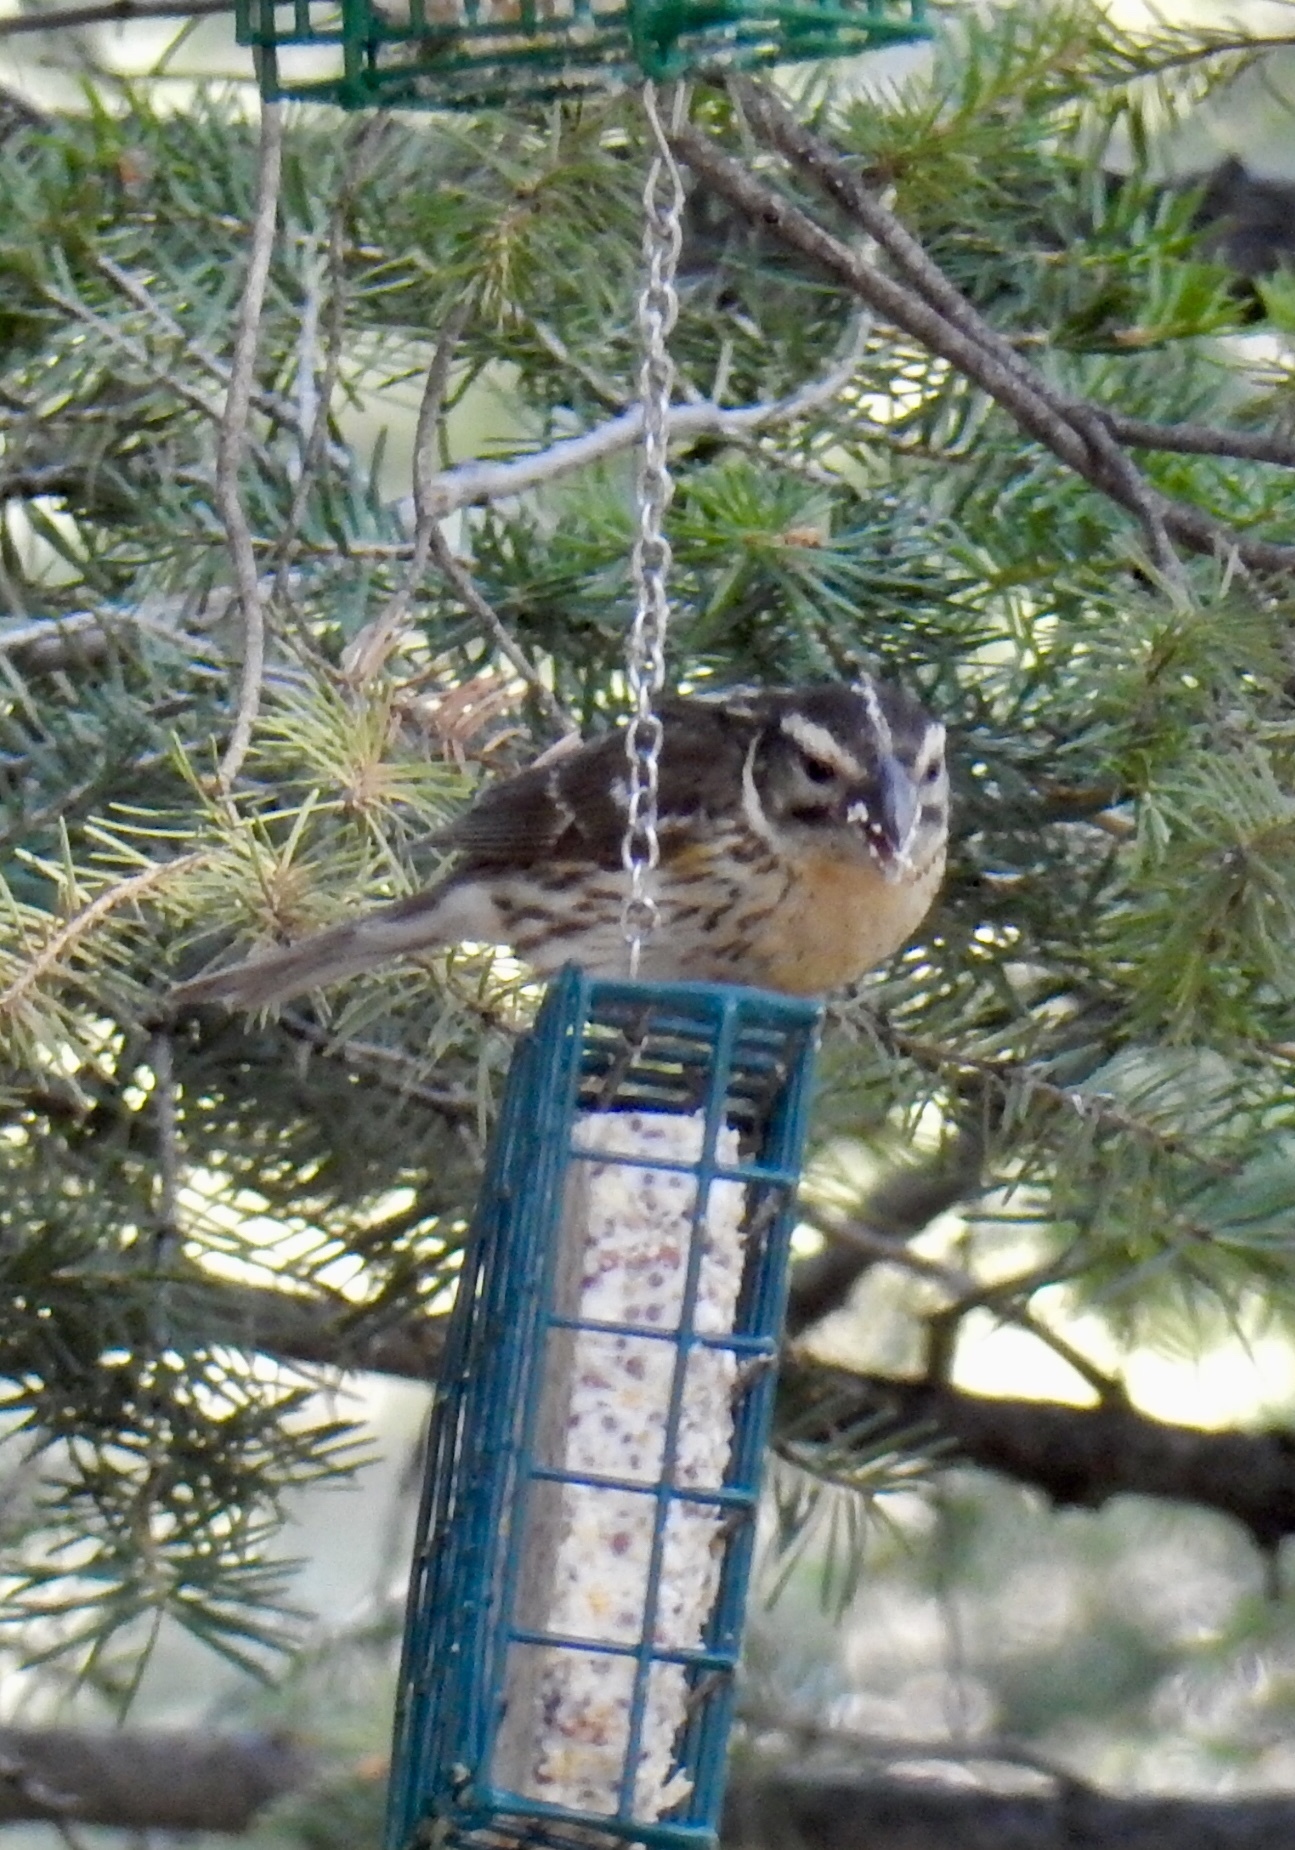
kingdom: Animalia
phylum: Chordata
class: Aves
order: Passeriformes
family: Cardinalidae
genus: Pheucticus
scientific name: Pheucticus melanocephalus
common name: Black-headed grosbeak
